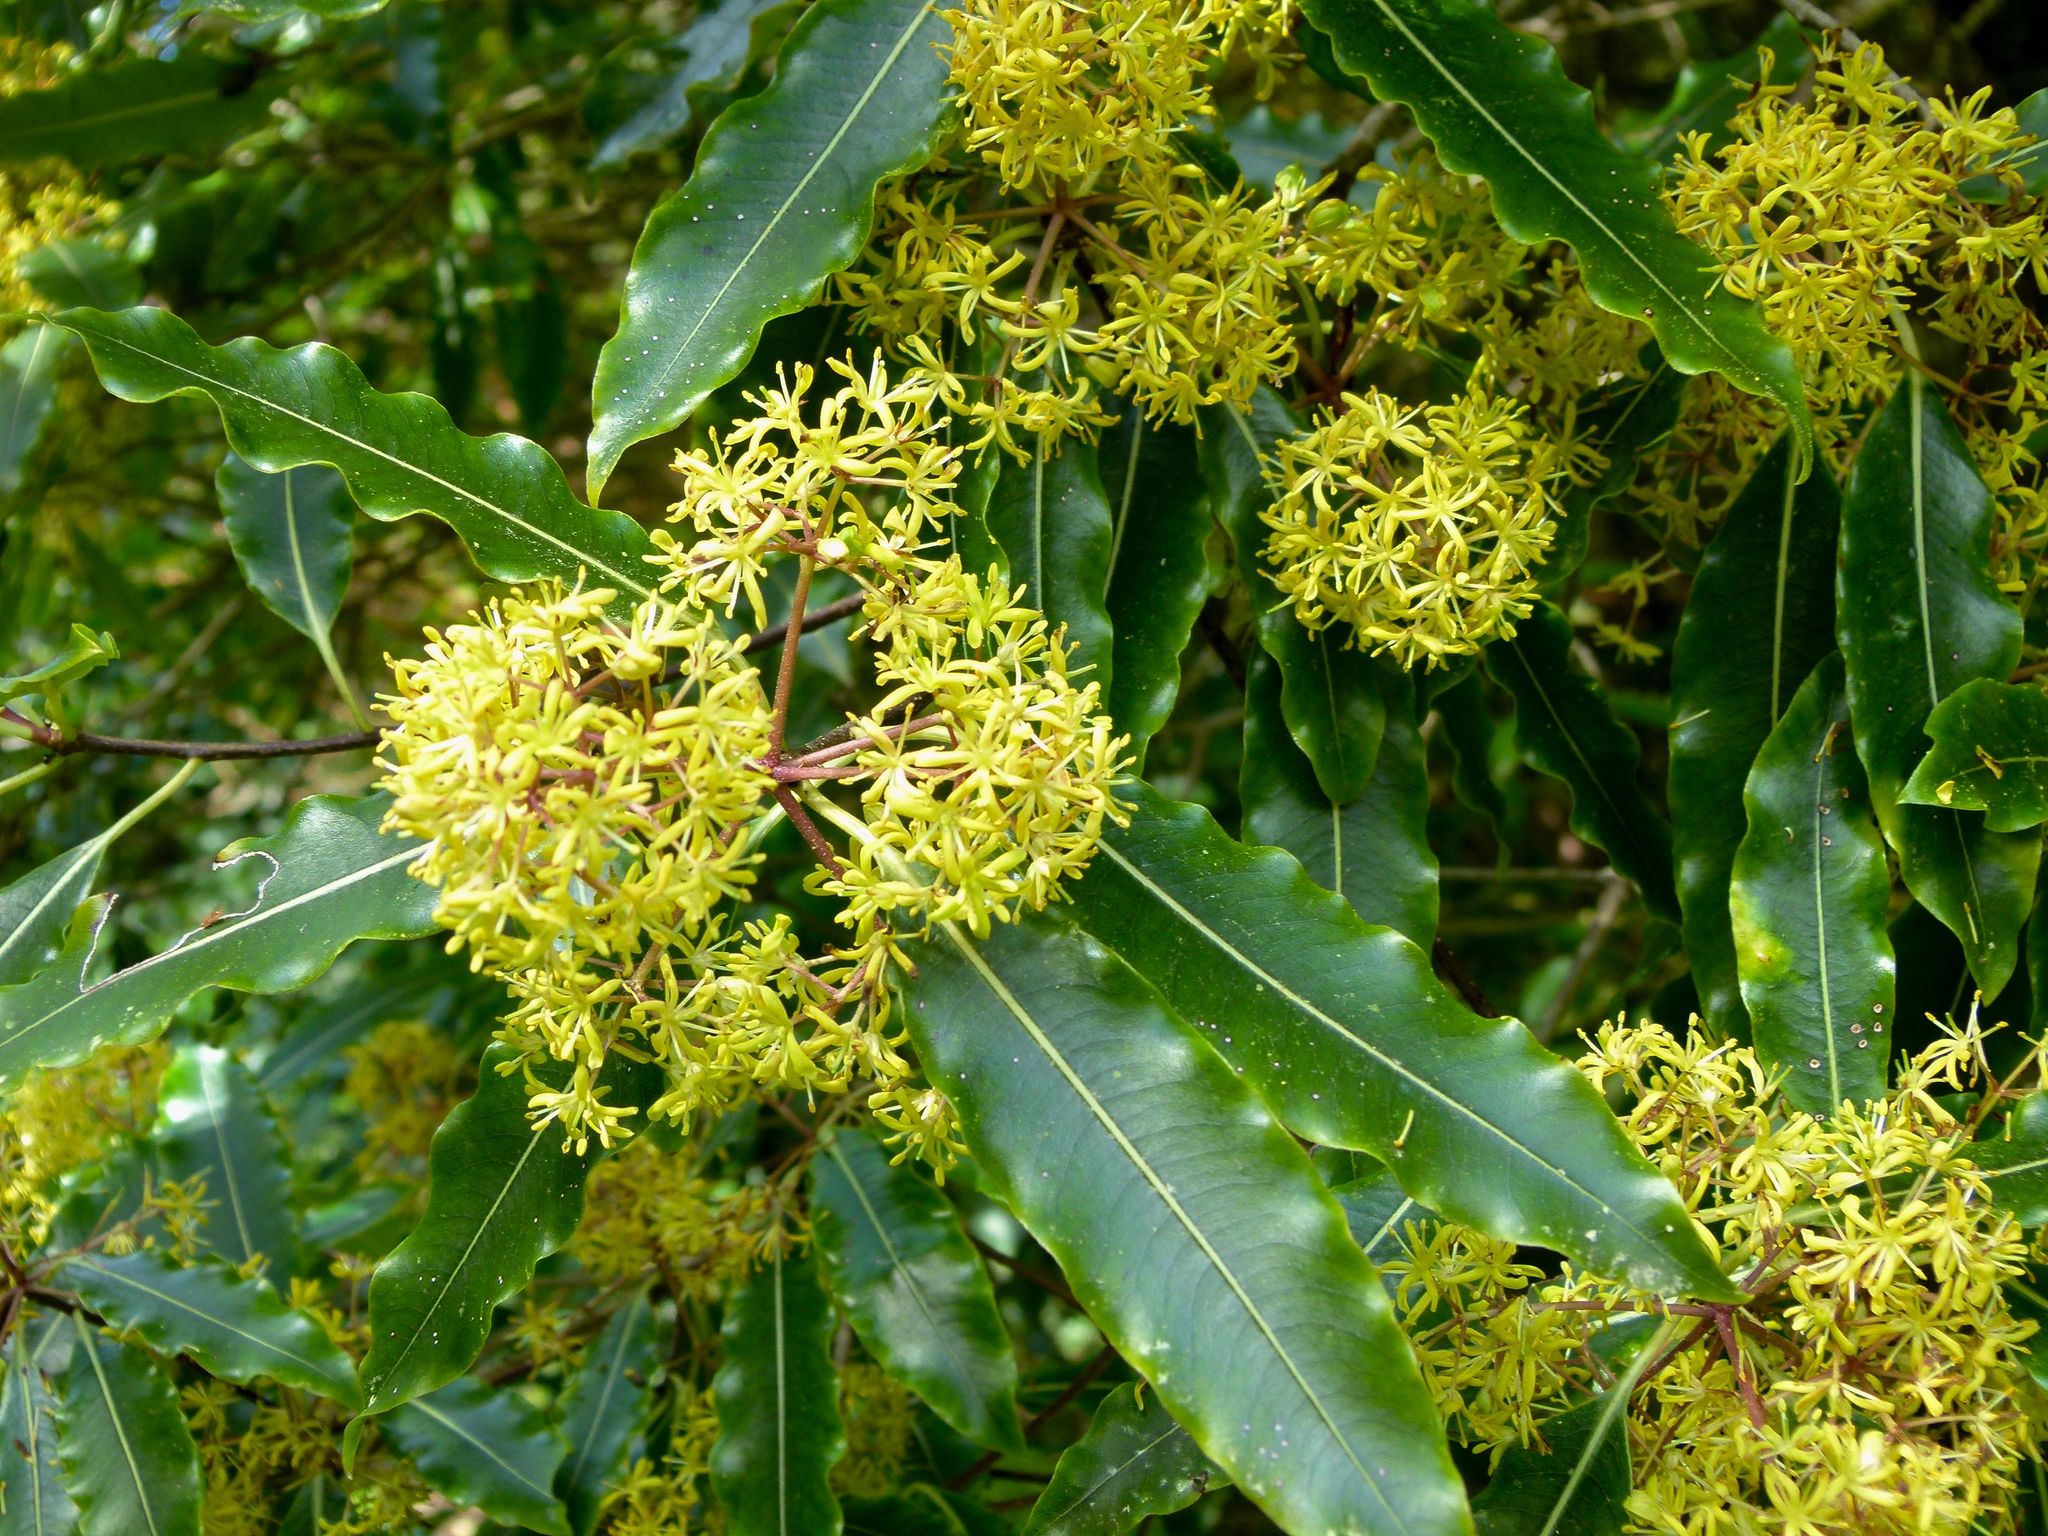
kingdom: Plantae
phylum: Tracheophyta
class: Magnoliopsida
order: Apiales
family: Pittosporaceae
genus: Pittosporum
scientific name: Pittosporum eugenioides
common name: Lemonwood
